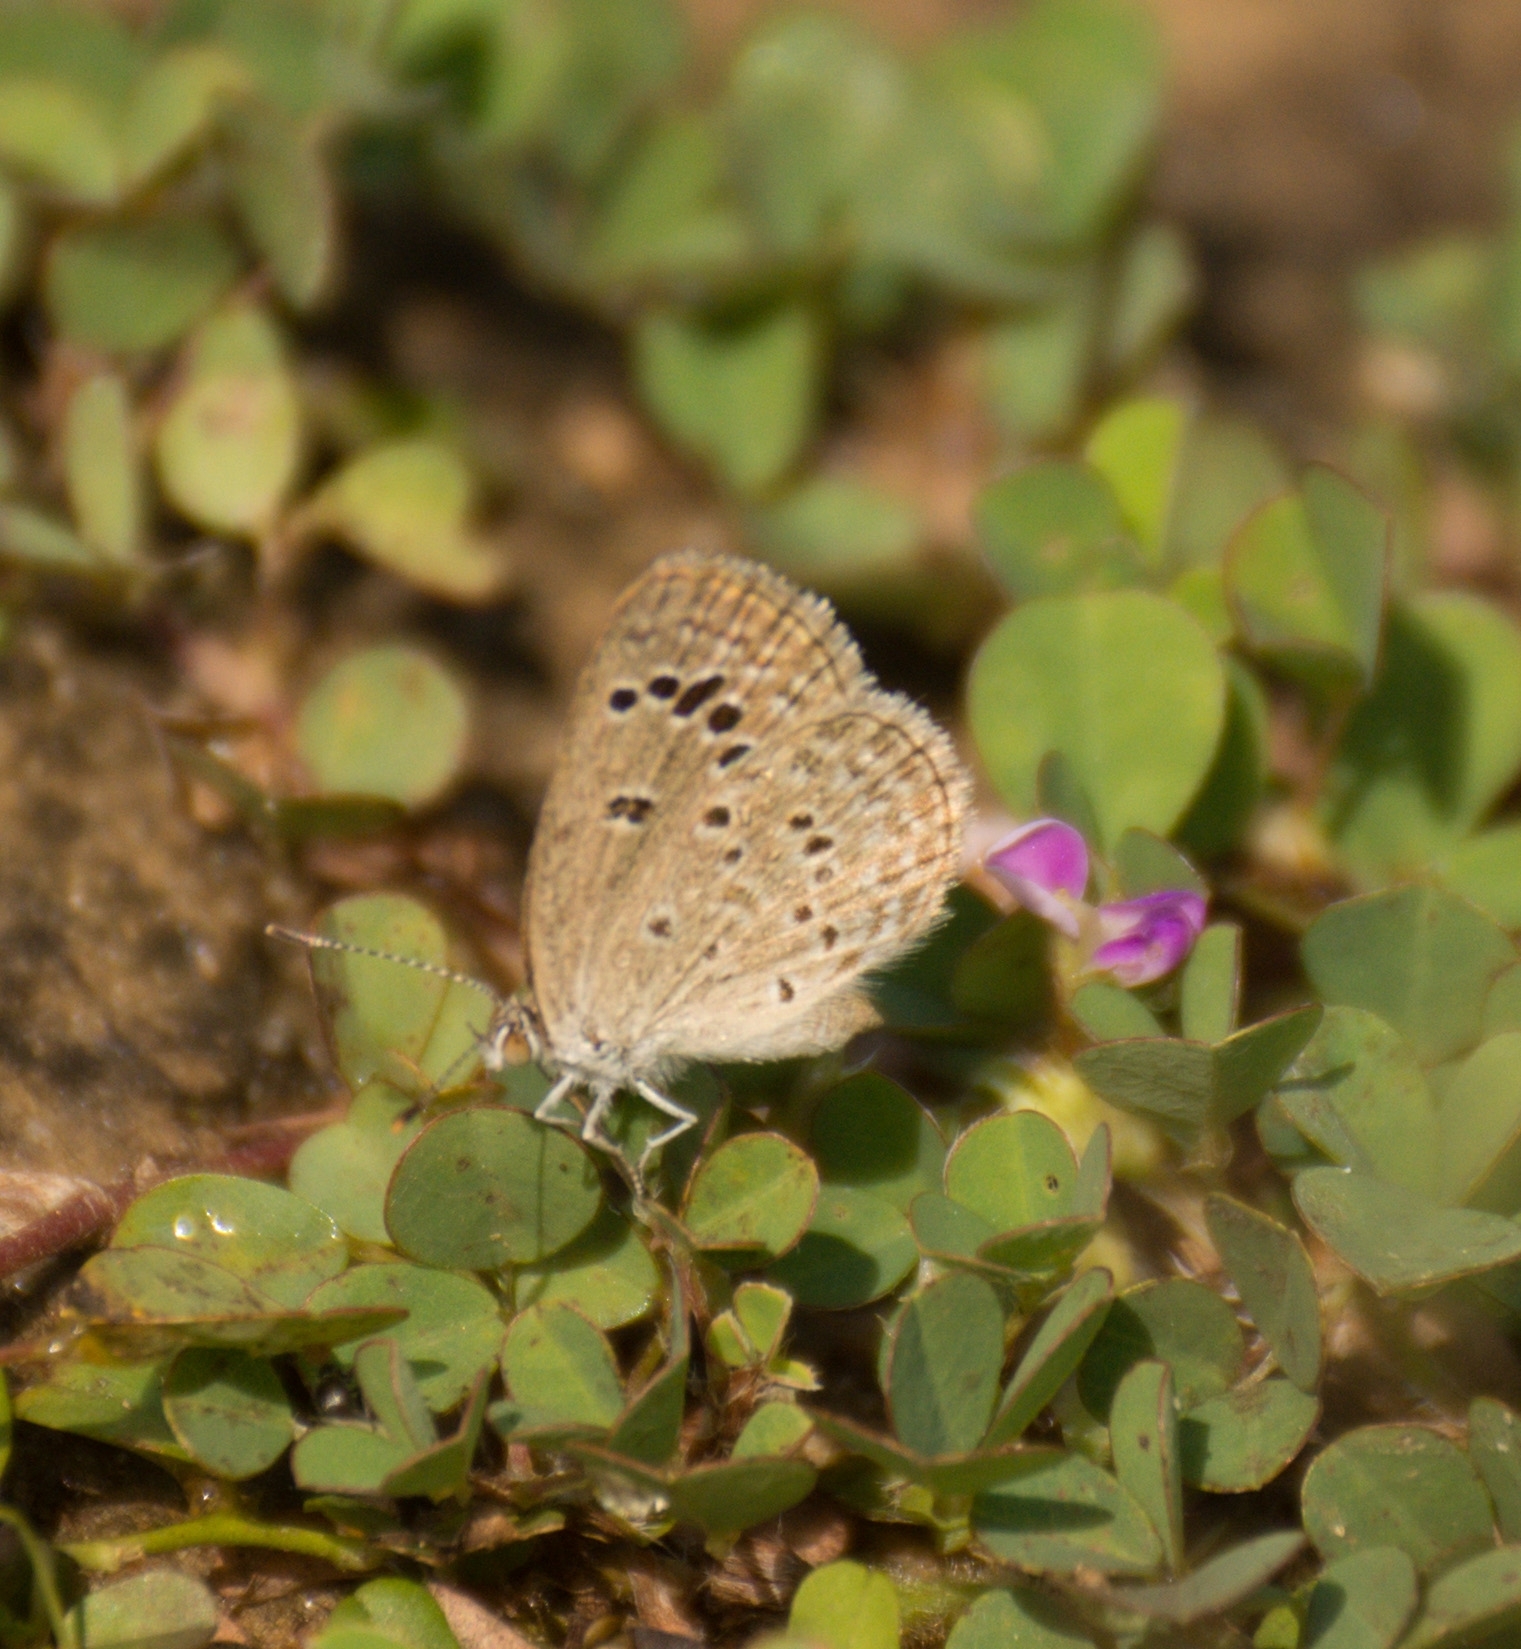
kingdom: Animalia
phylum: Arthropoda
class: Insecta
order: Lepidoptera
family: Lycaenidae
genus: Zizina
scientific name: Zizina otis
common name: Lesser grass blue
